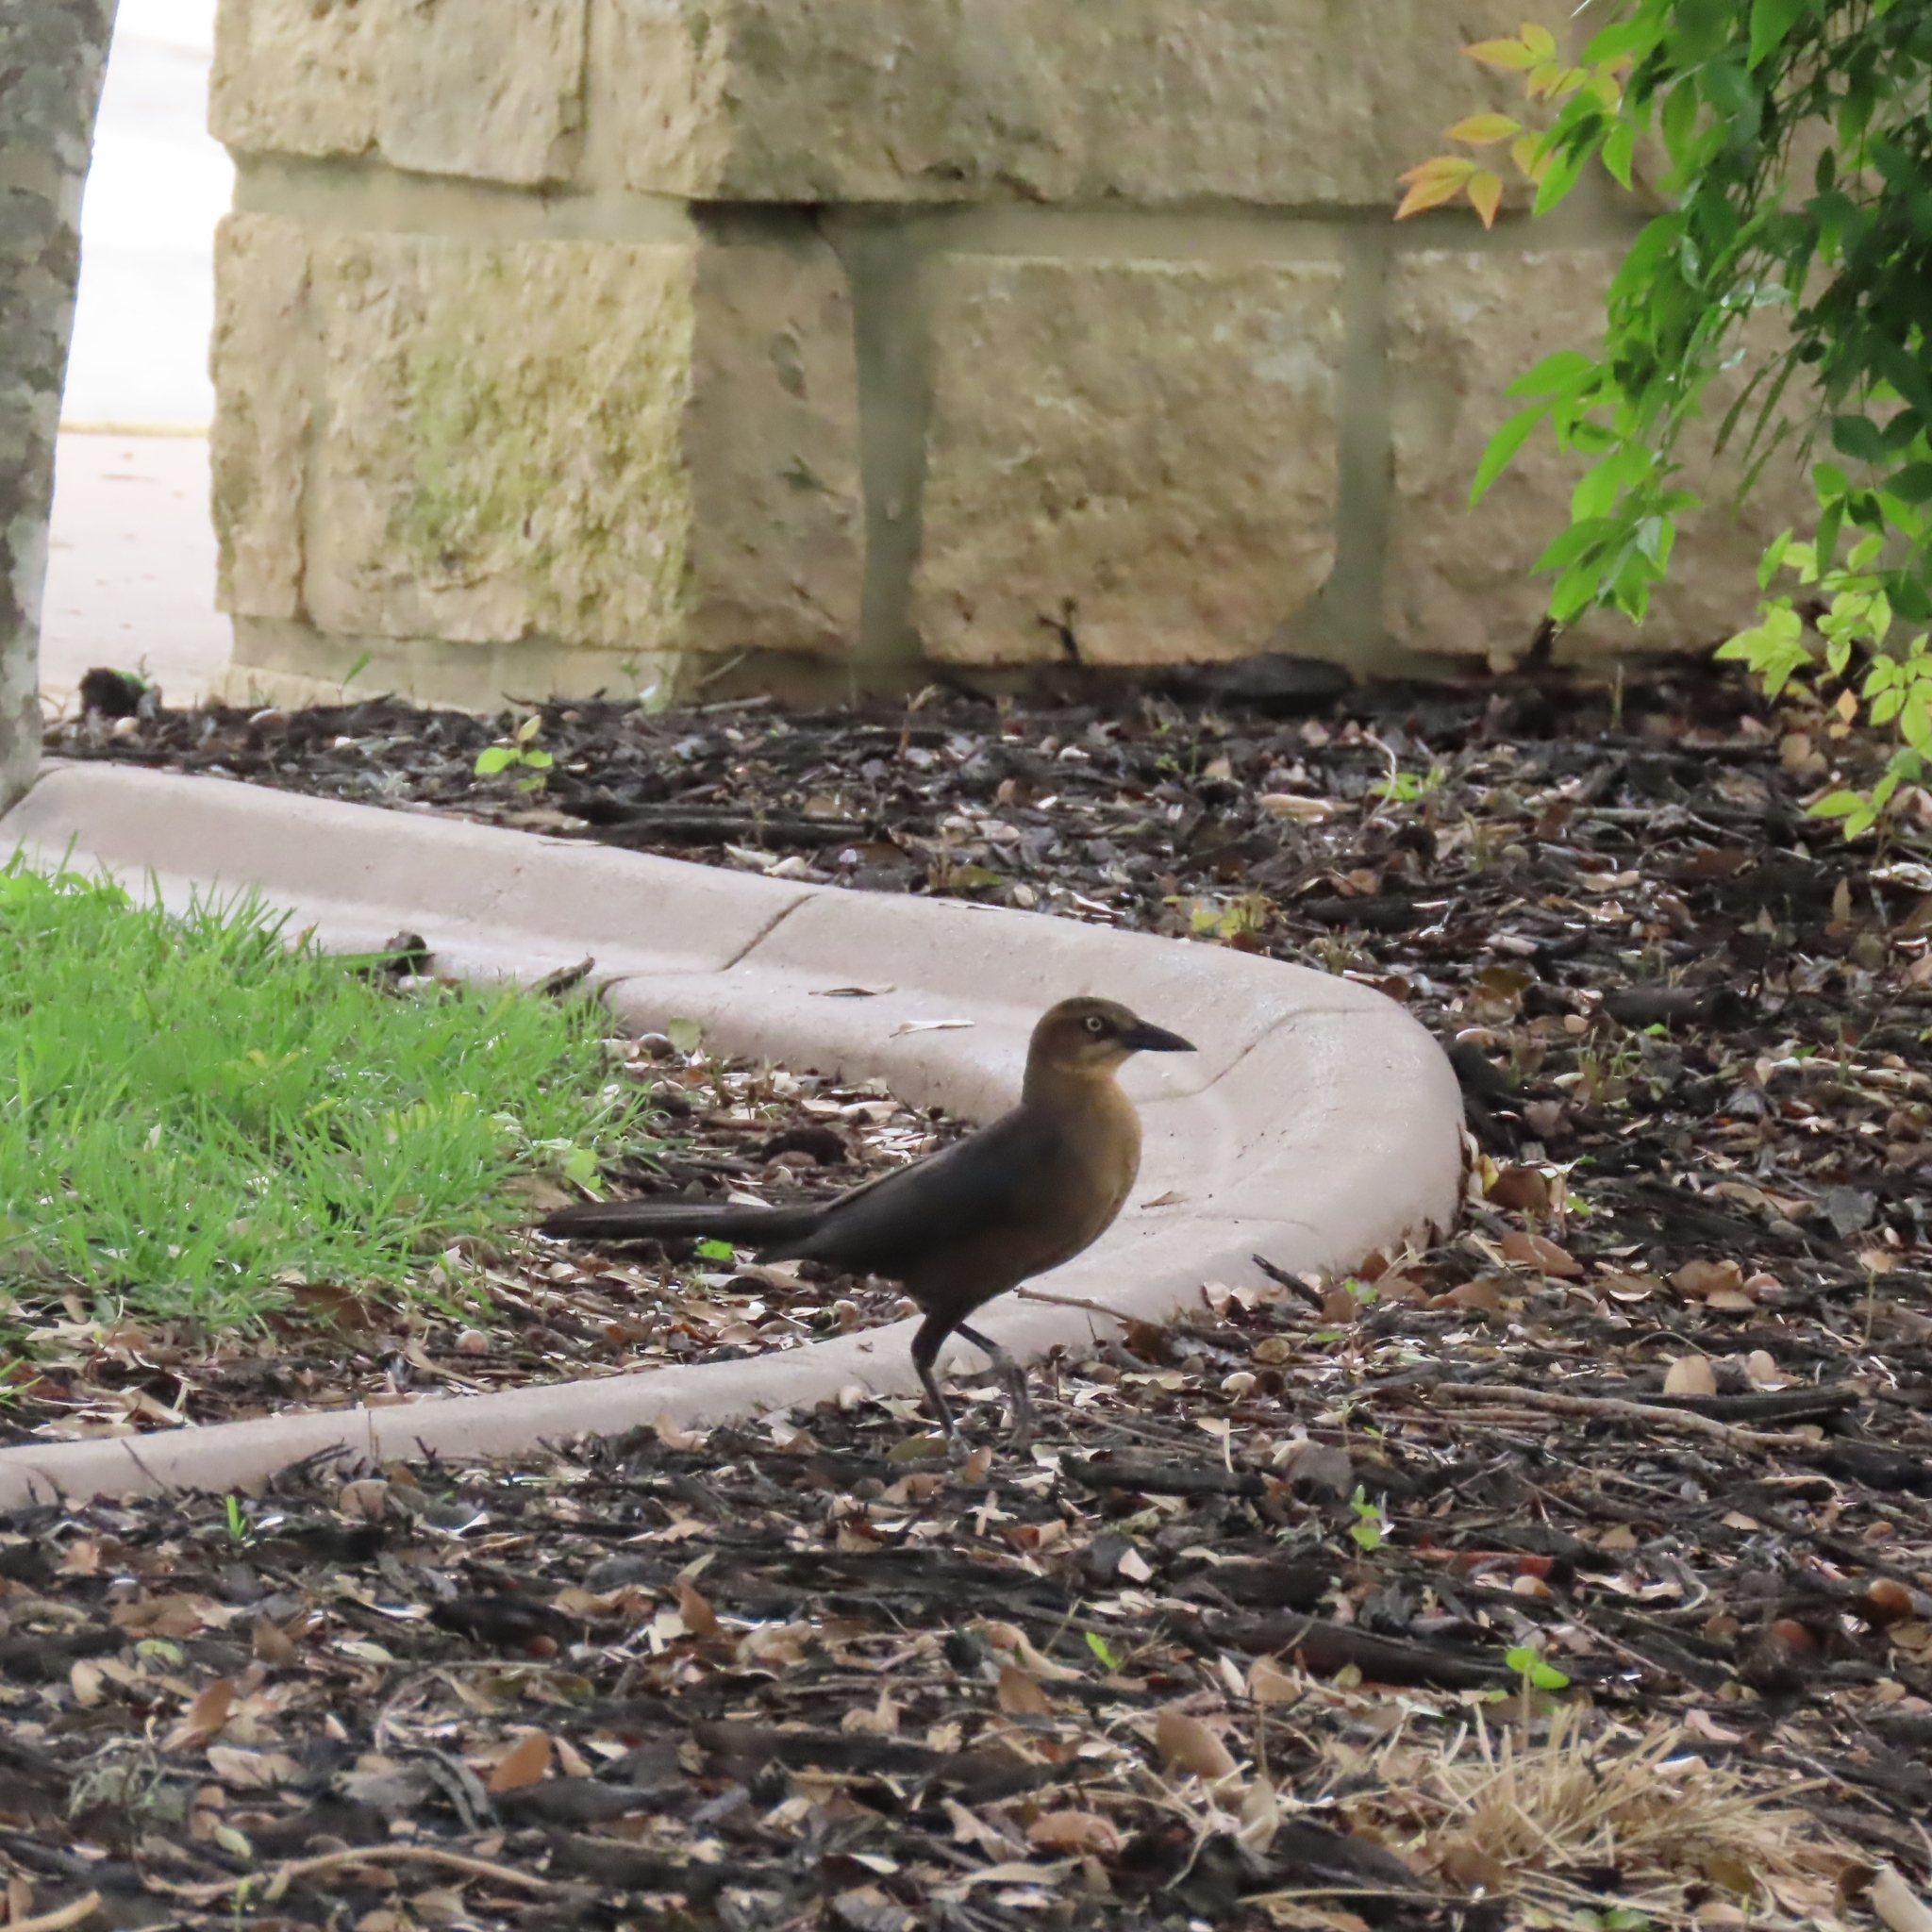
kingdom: Animalia
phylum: Chordata
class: Aves
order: Passeriformes
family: Icteridae
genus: Quiscalus
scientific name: Quiscalus mexicanus
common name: Great-tailed grackle
